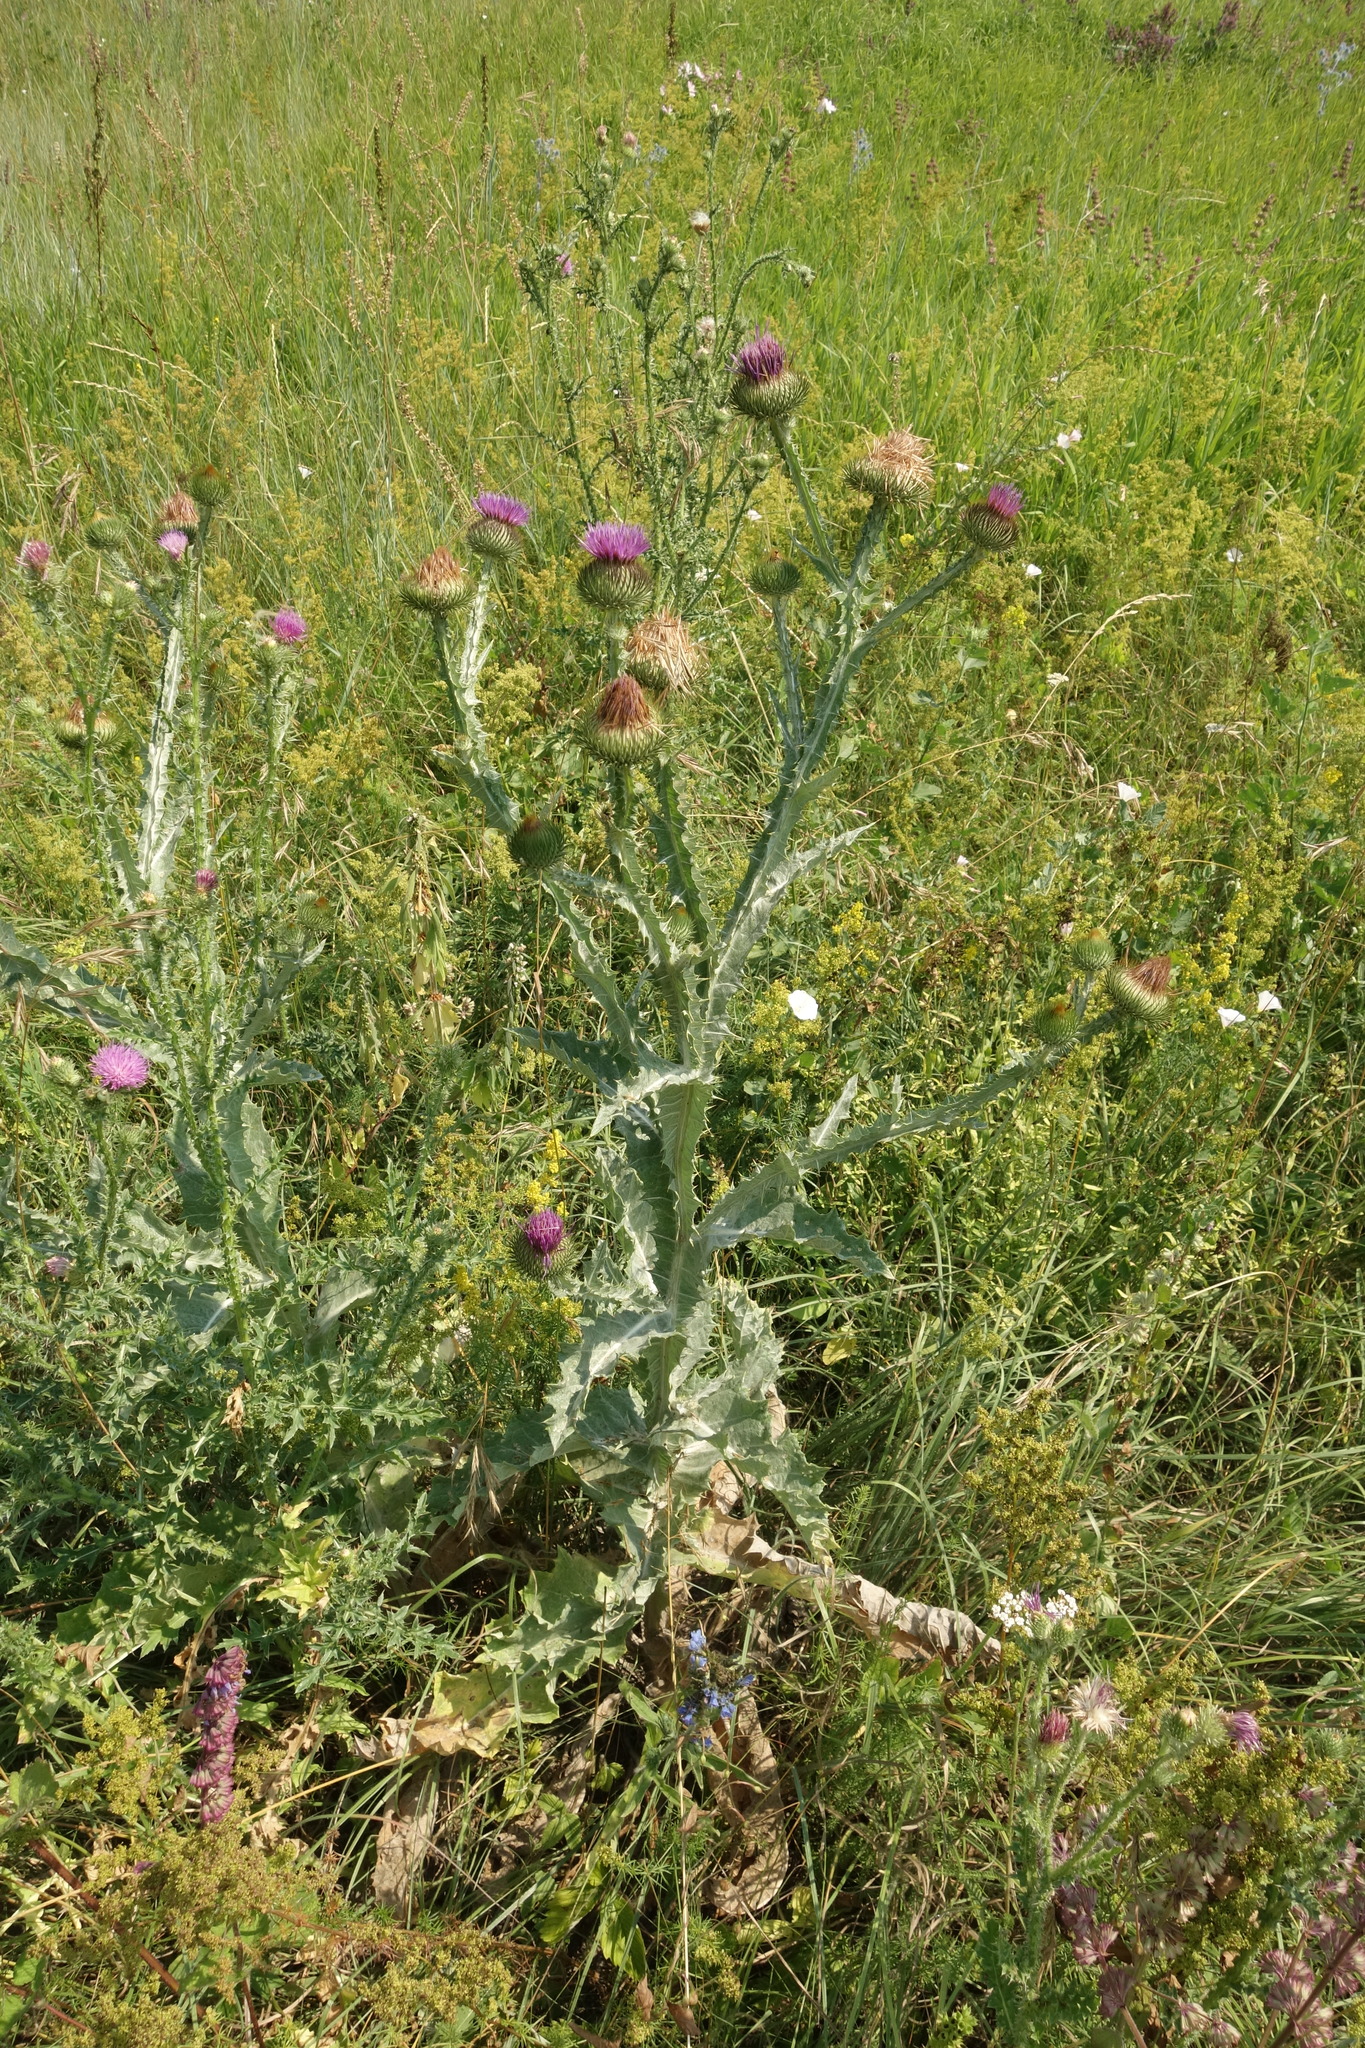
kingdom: Plantae
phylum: Tracheophyta
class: Magnoliopsida
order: Asterales
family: Asteraceae
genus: Onopordum
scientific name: Onopordum acanthium
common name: Scotch thistle
